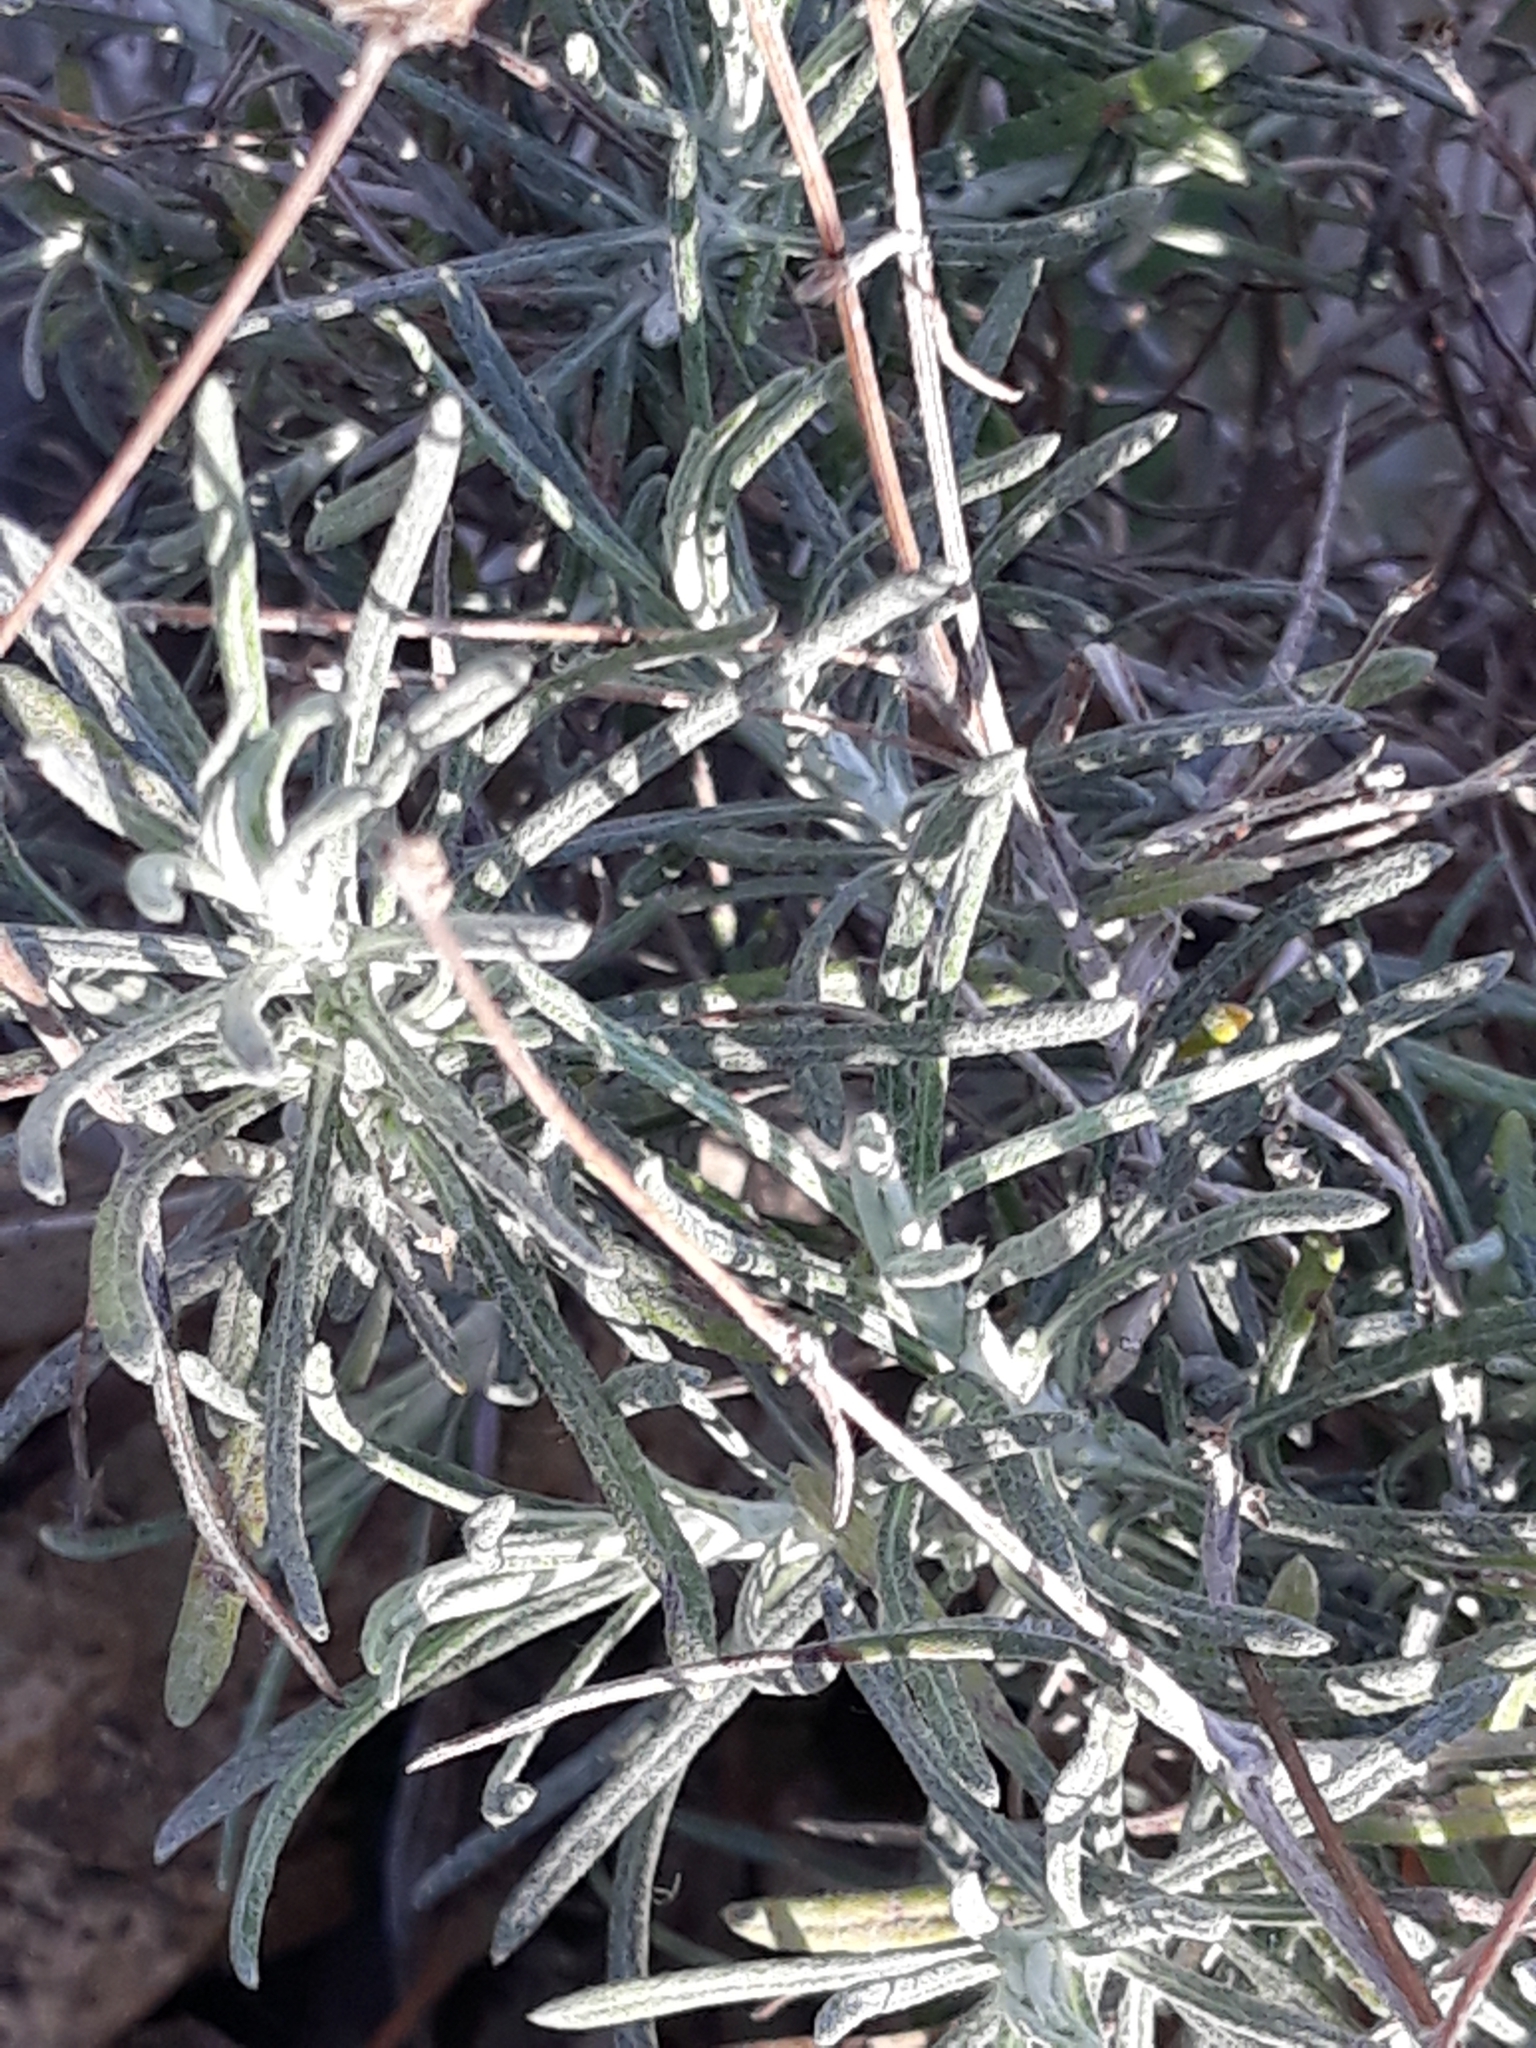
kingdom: Plantae
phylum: Tracheophyta
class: Magnoliopsida
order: Asterales
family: Asteraceae
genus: Phagnalon
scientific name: Phagnalon sordidum
